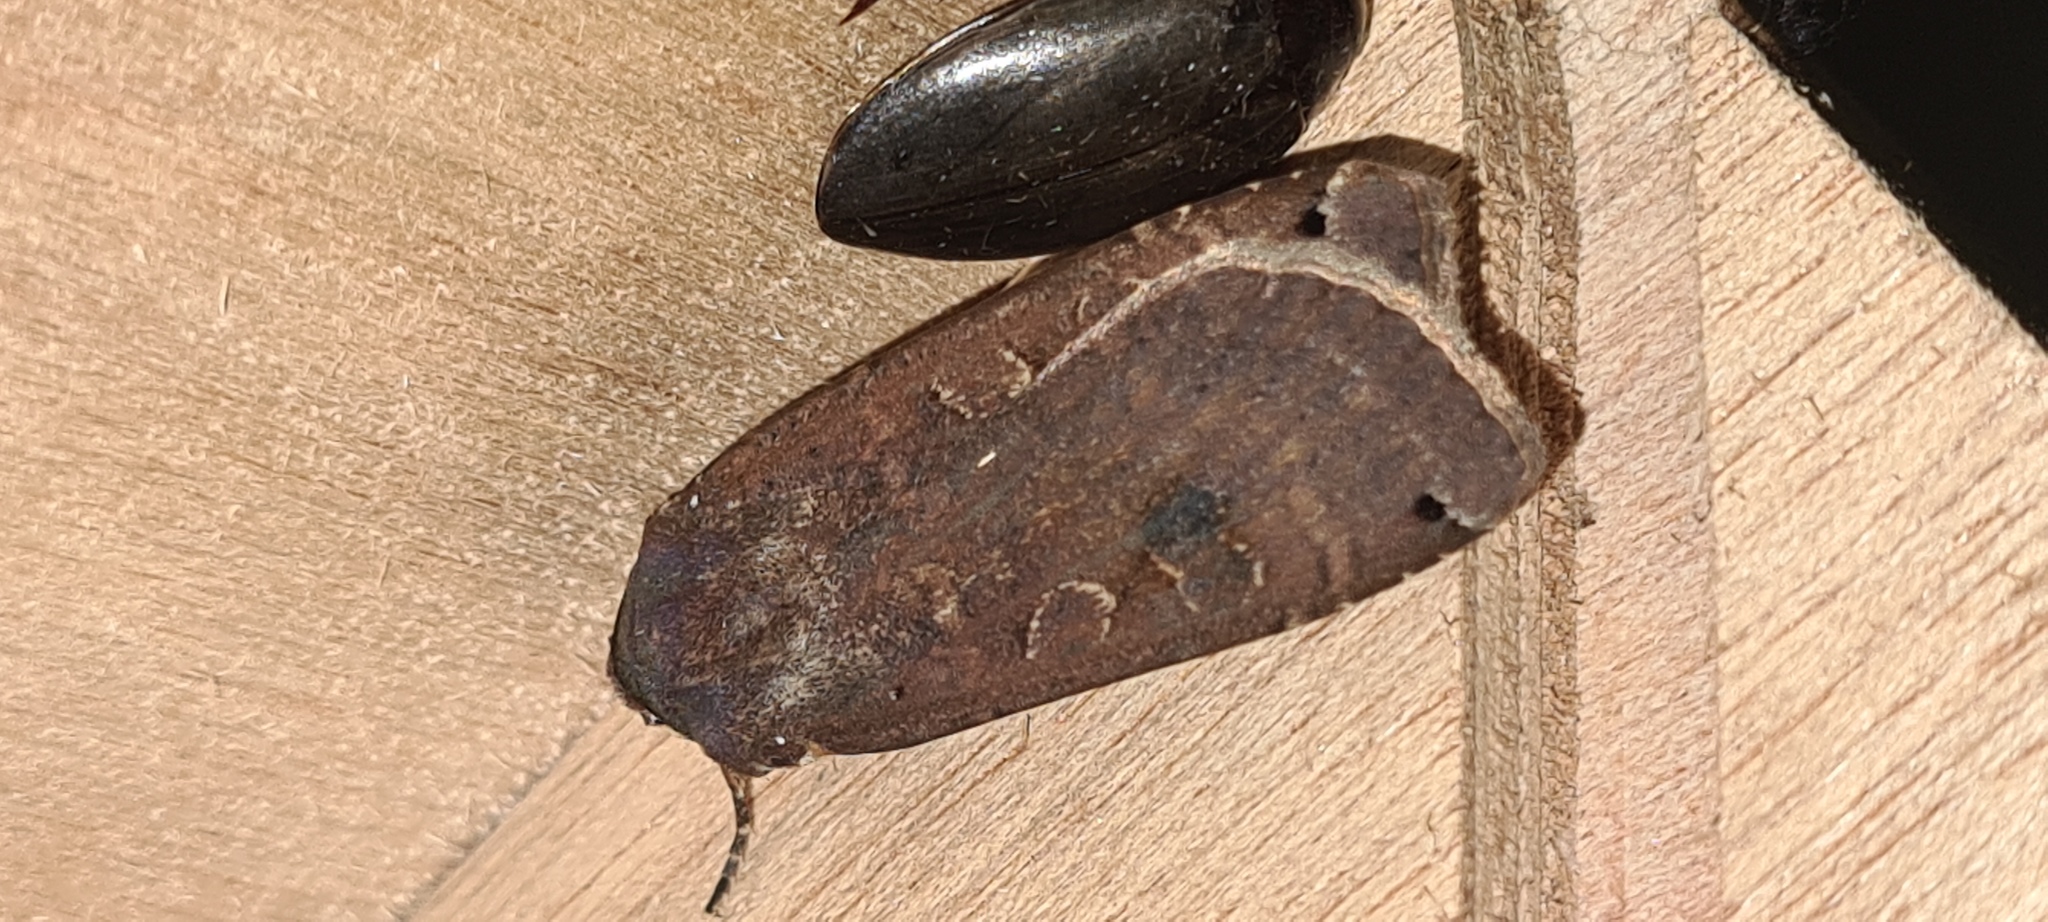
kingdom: Animalia
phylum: Arthropoda
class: Insecta
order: Lepidoptera
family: Noctuidae
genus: Noctua
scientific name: Noctua pronuba
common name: Large yellow underwing
